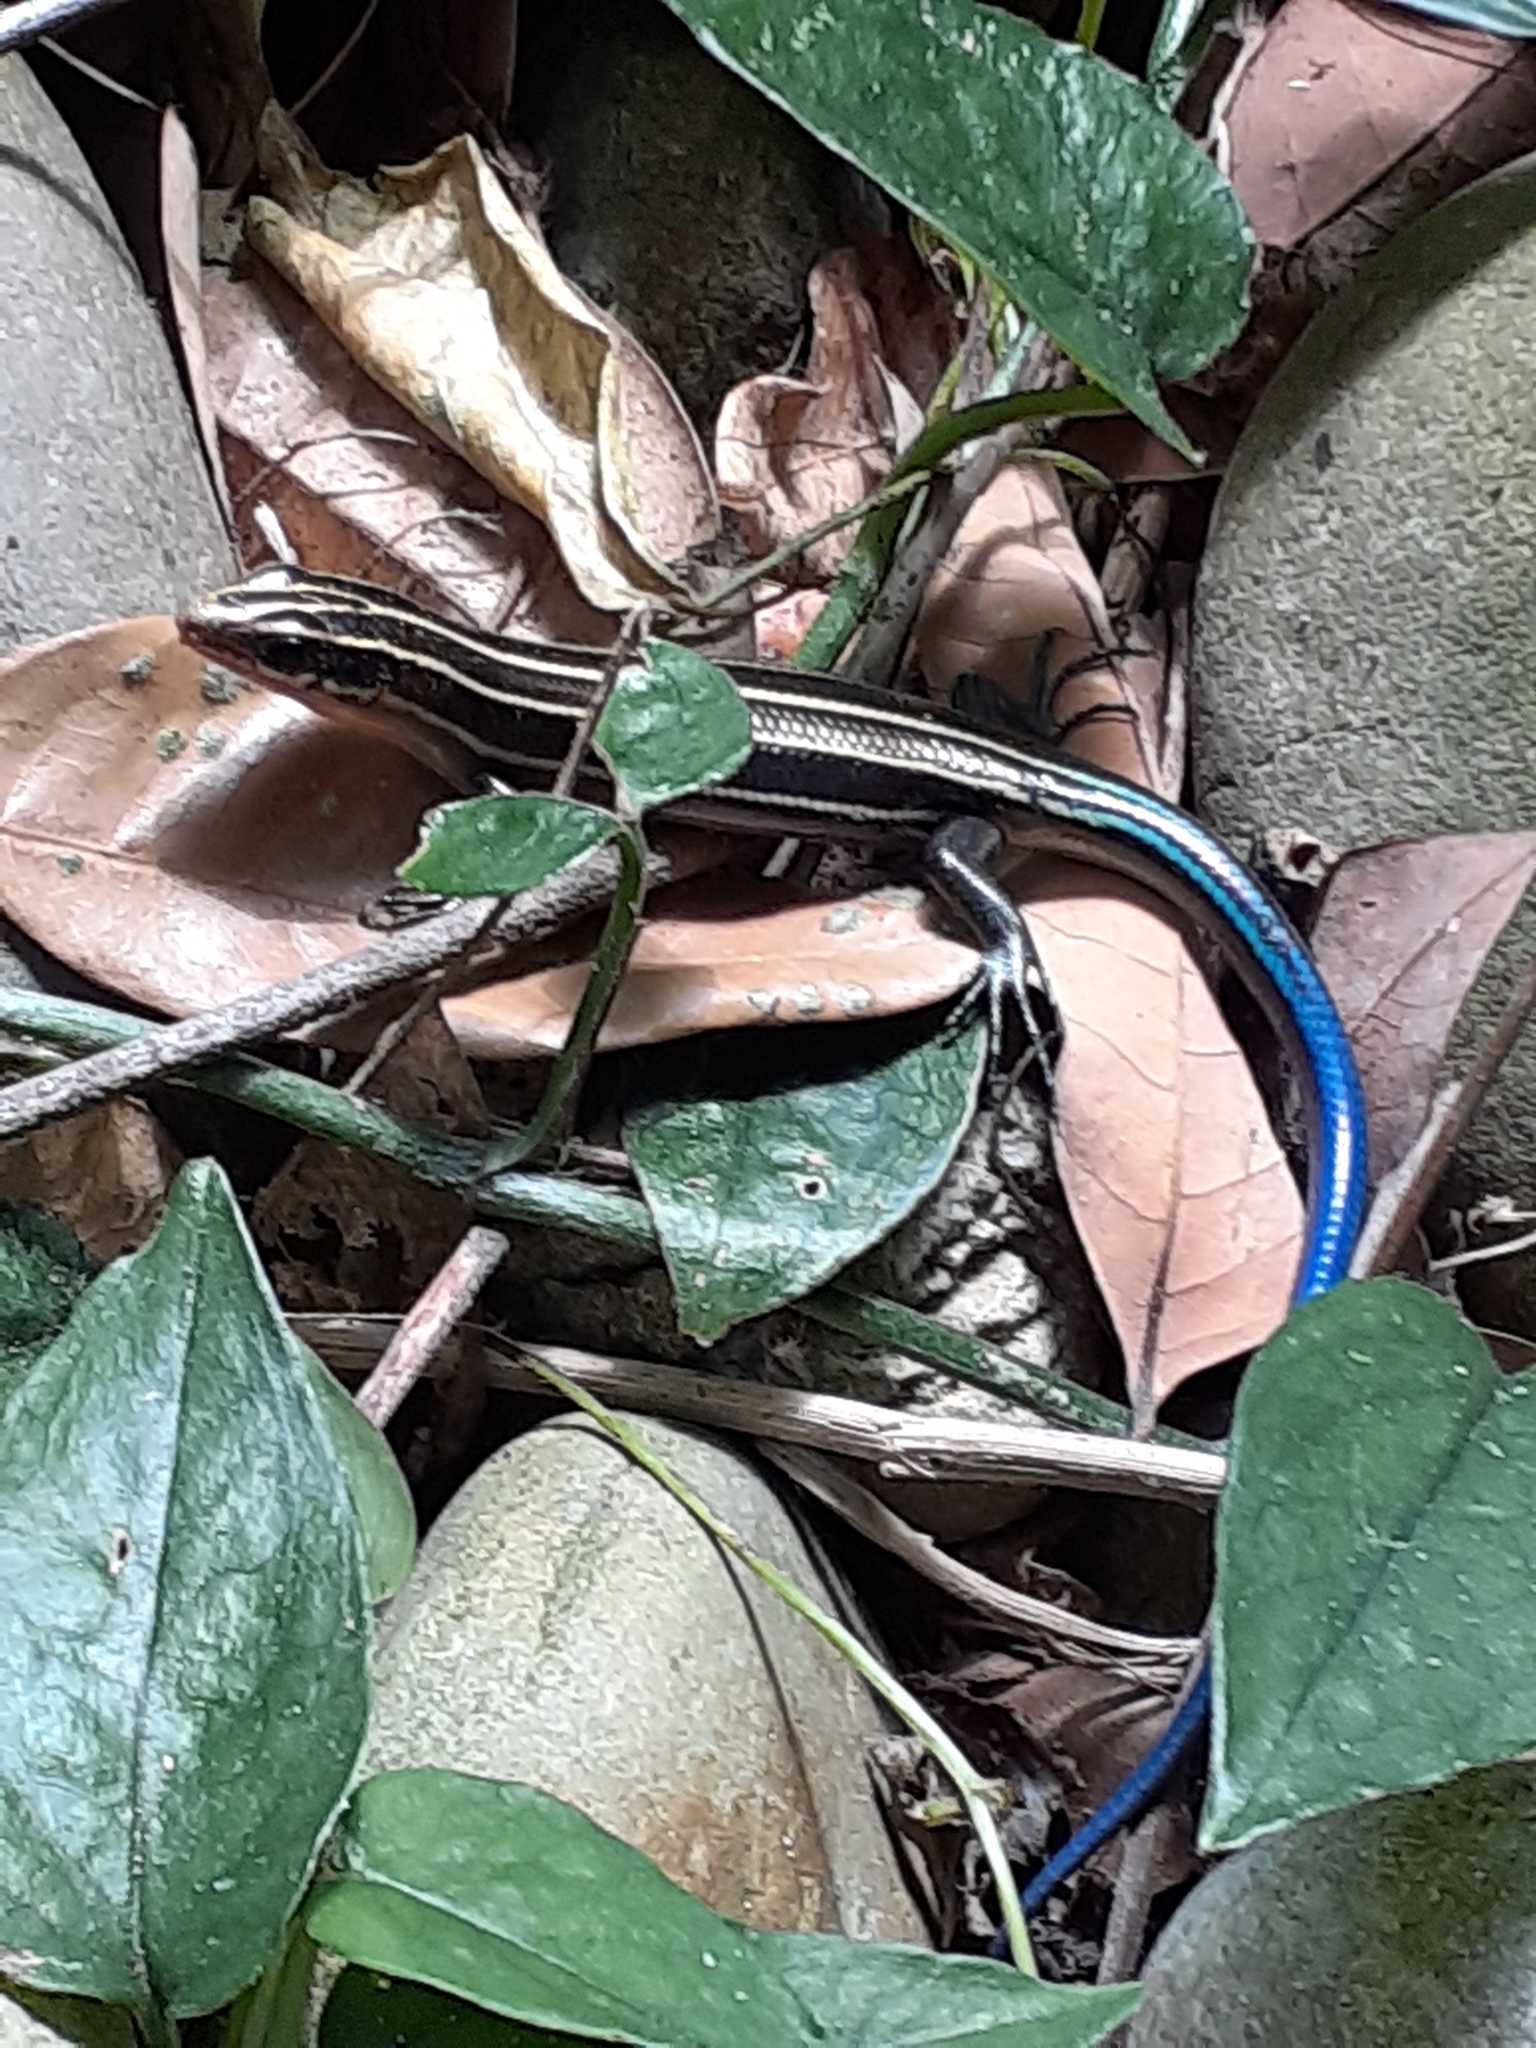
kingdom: Animalia
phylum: Chordata
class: Squamata
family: Scincidae
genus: Plestiodon
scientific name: Plestiodon elegans
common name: Shanghai elegant skink
